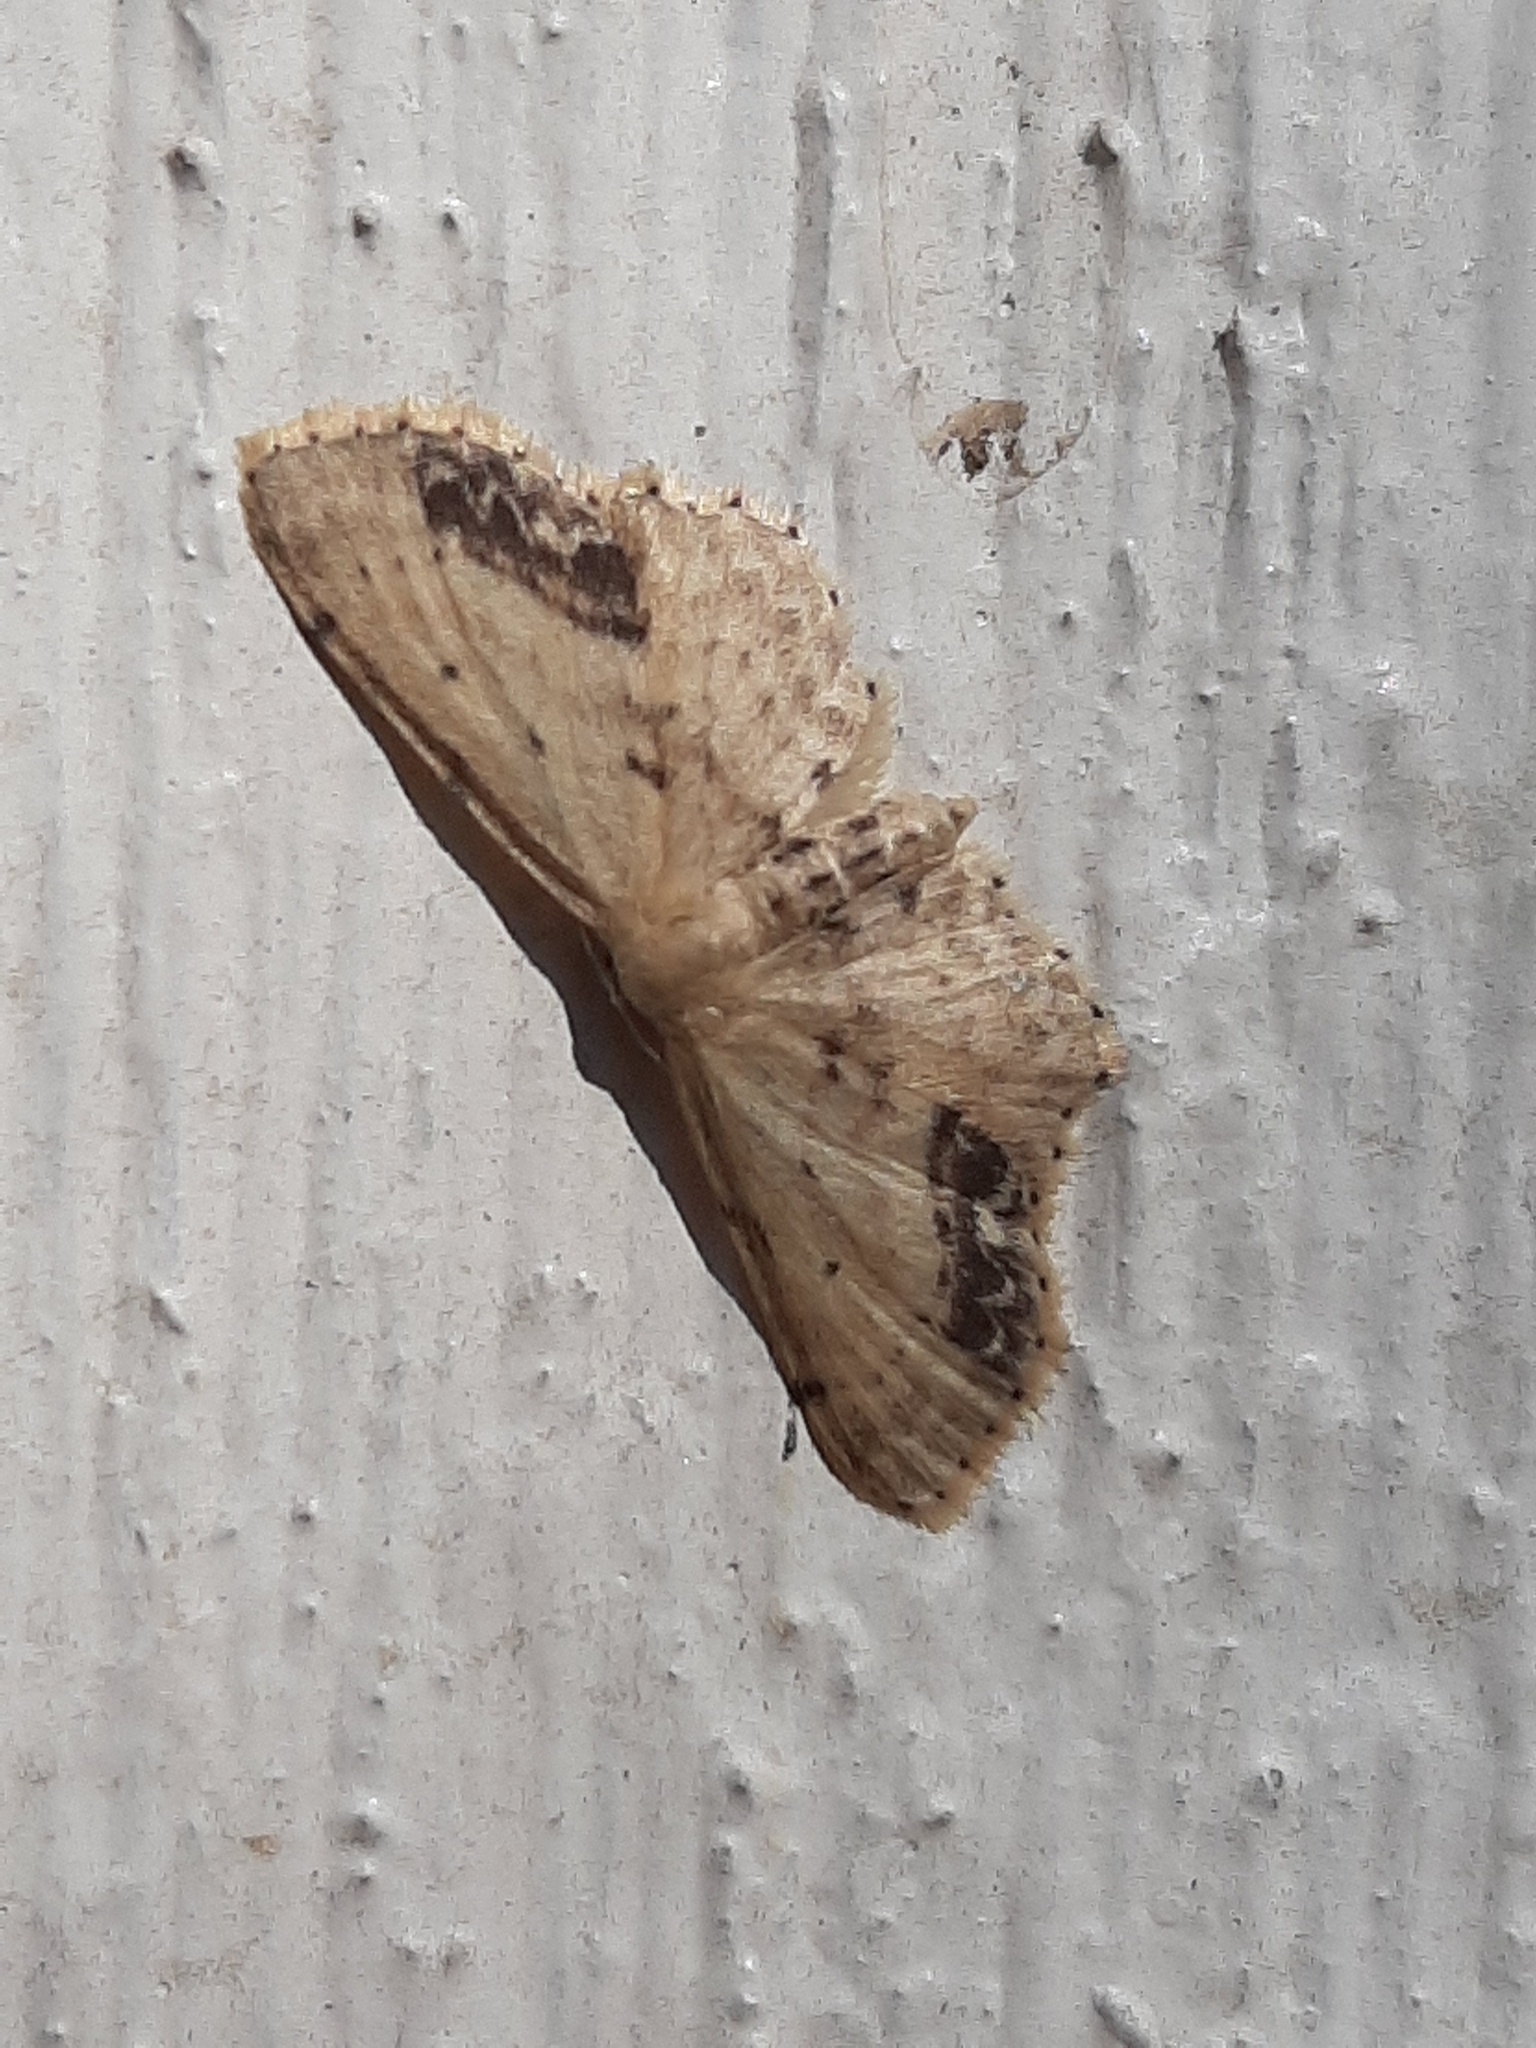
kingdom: Animalia
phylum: Arthropoda
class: Insecta
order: Lepidoptera
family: Geometridae
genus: Idaea
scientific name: Idaea dimidiata
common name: Single-dotted wave
